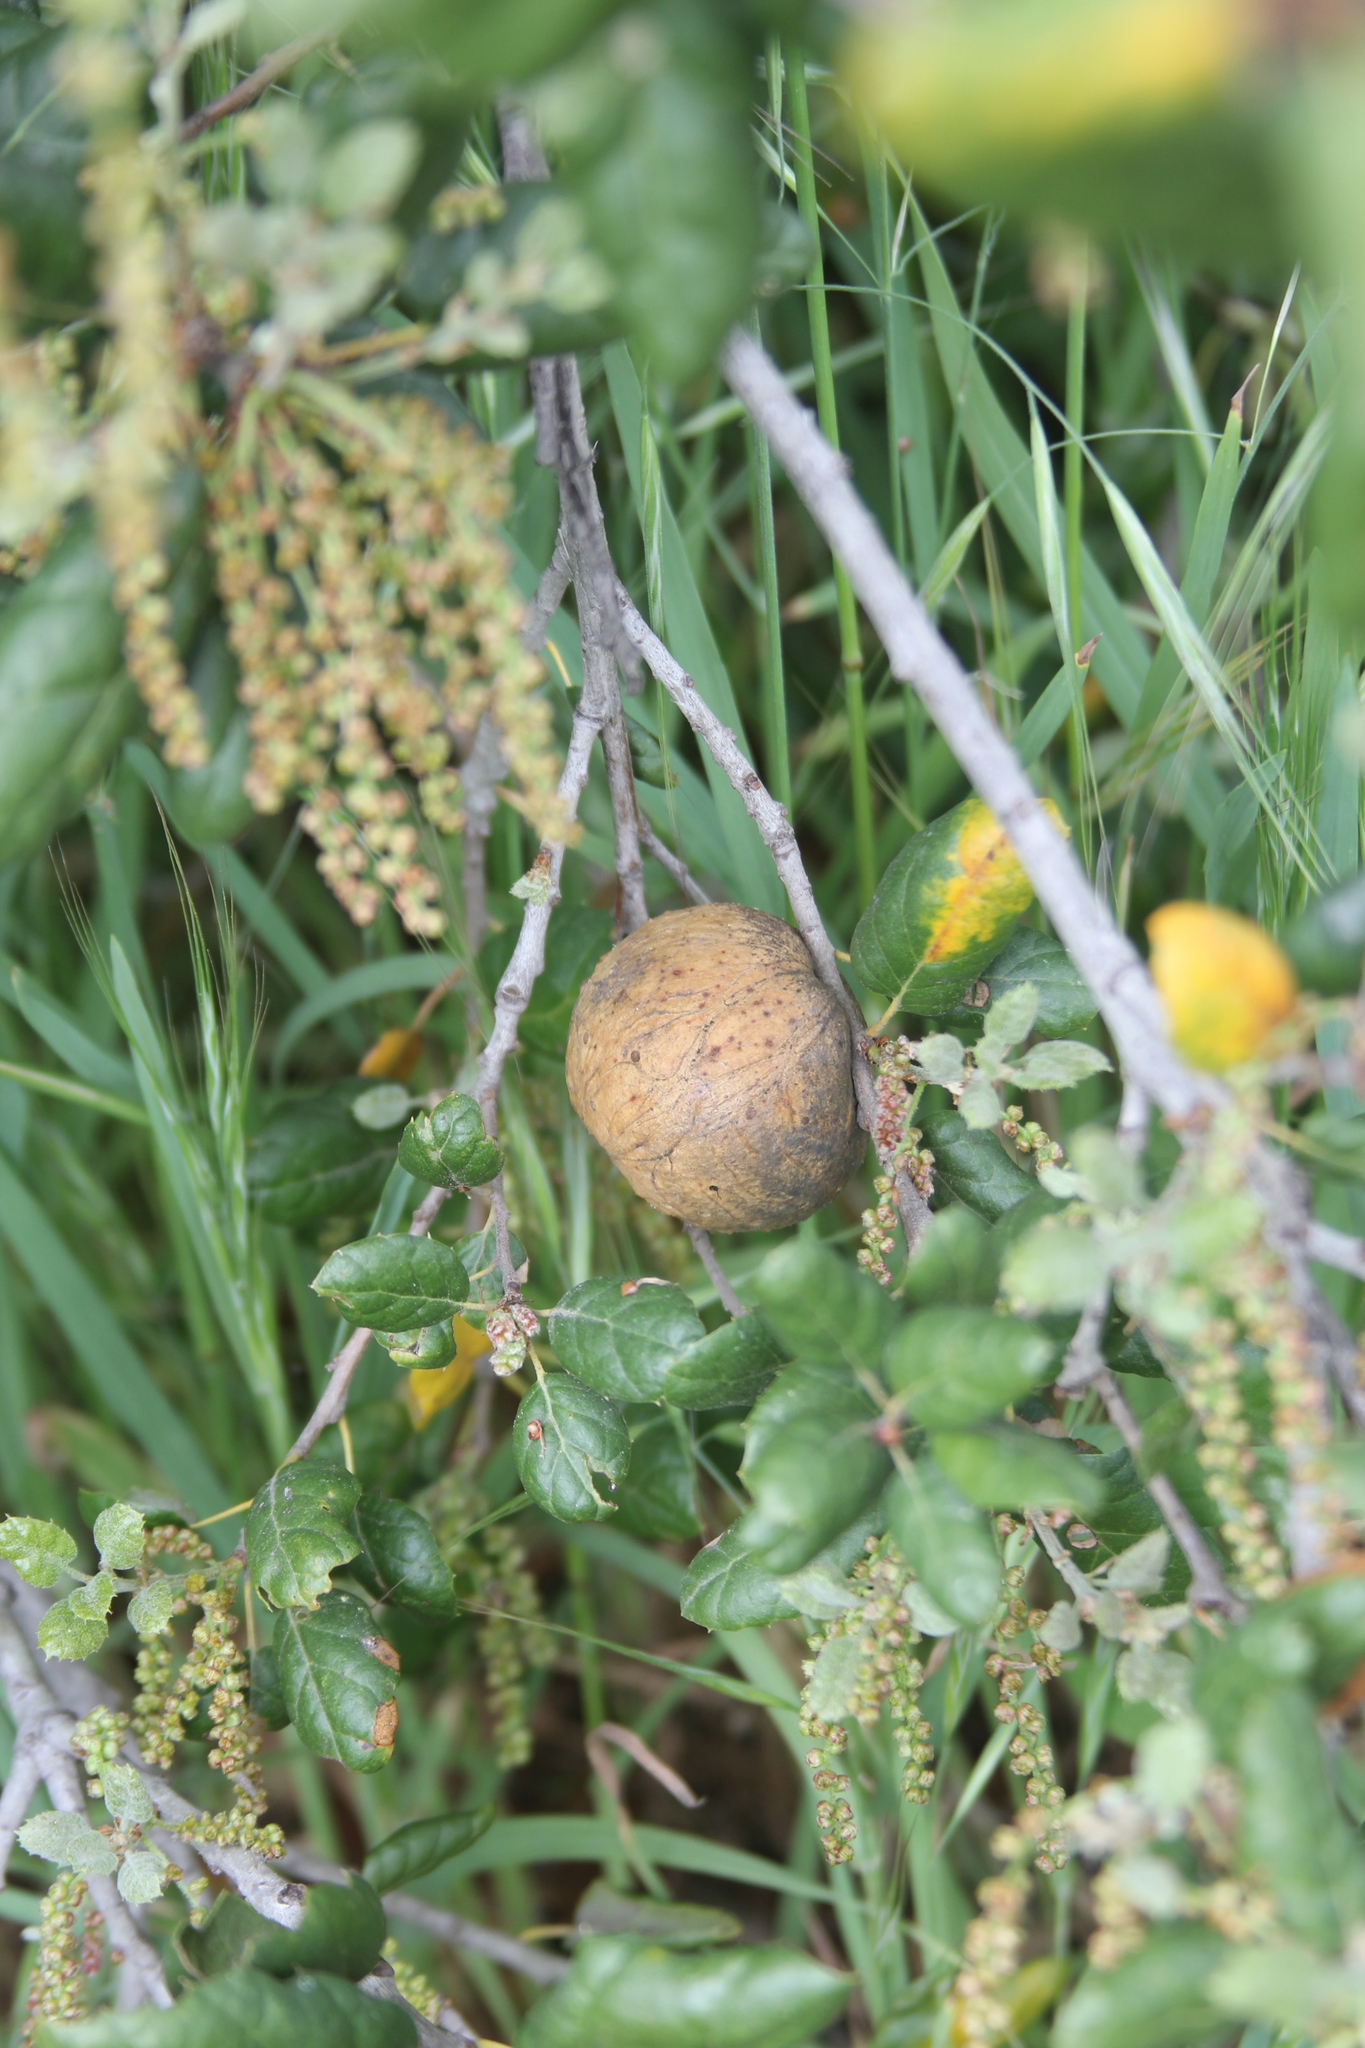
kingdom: Animalia
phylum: Arthropoda
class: Insecta
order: Hymenoptera
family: Cynipidae
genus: Amphibolips
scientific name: Amphibolips quercuspomiformis
